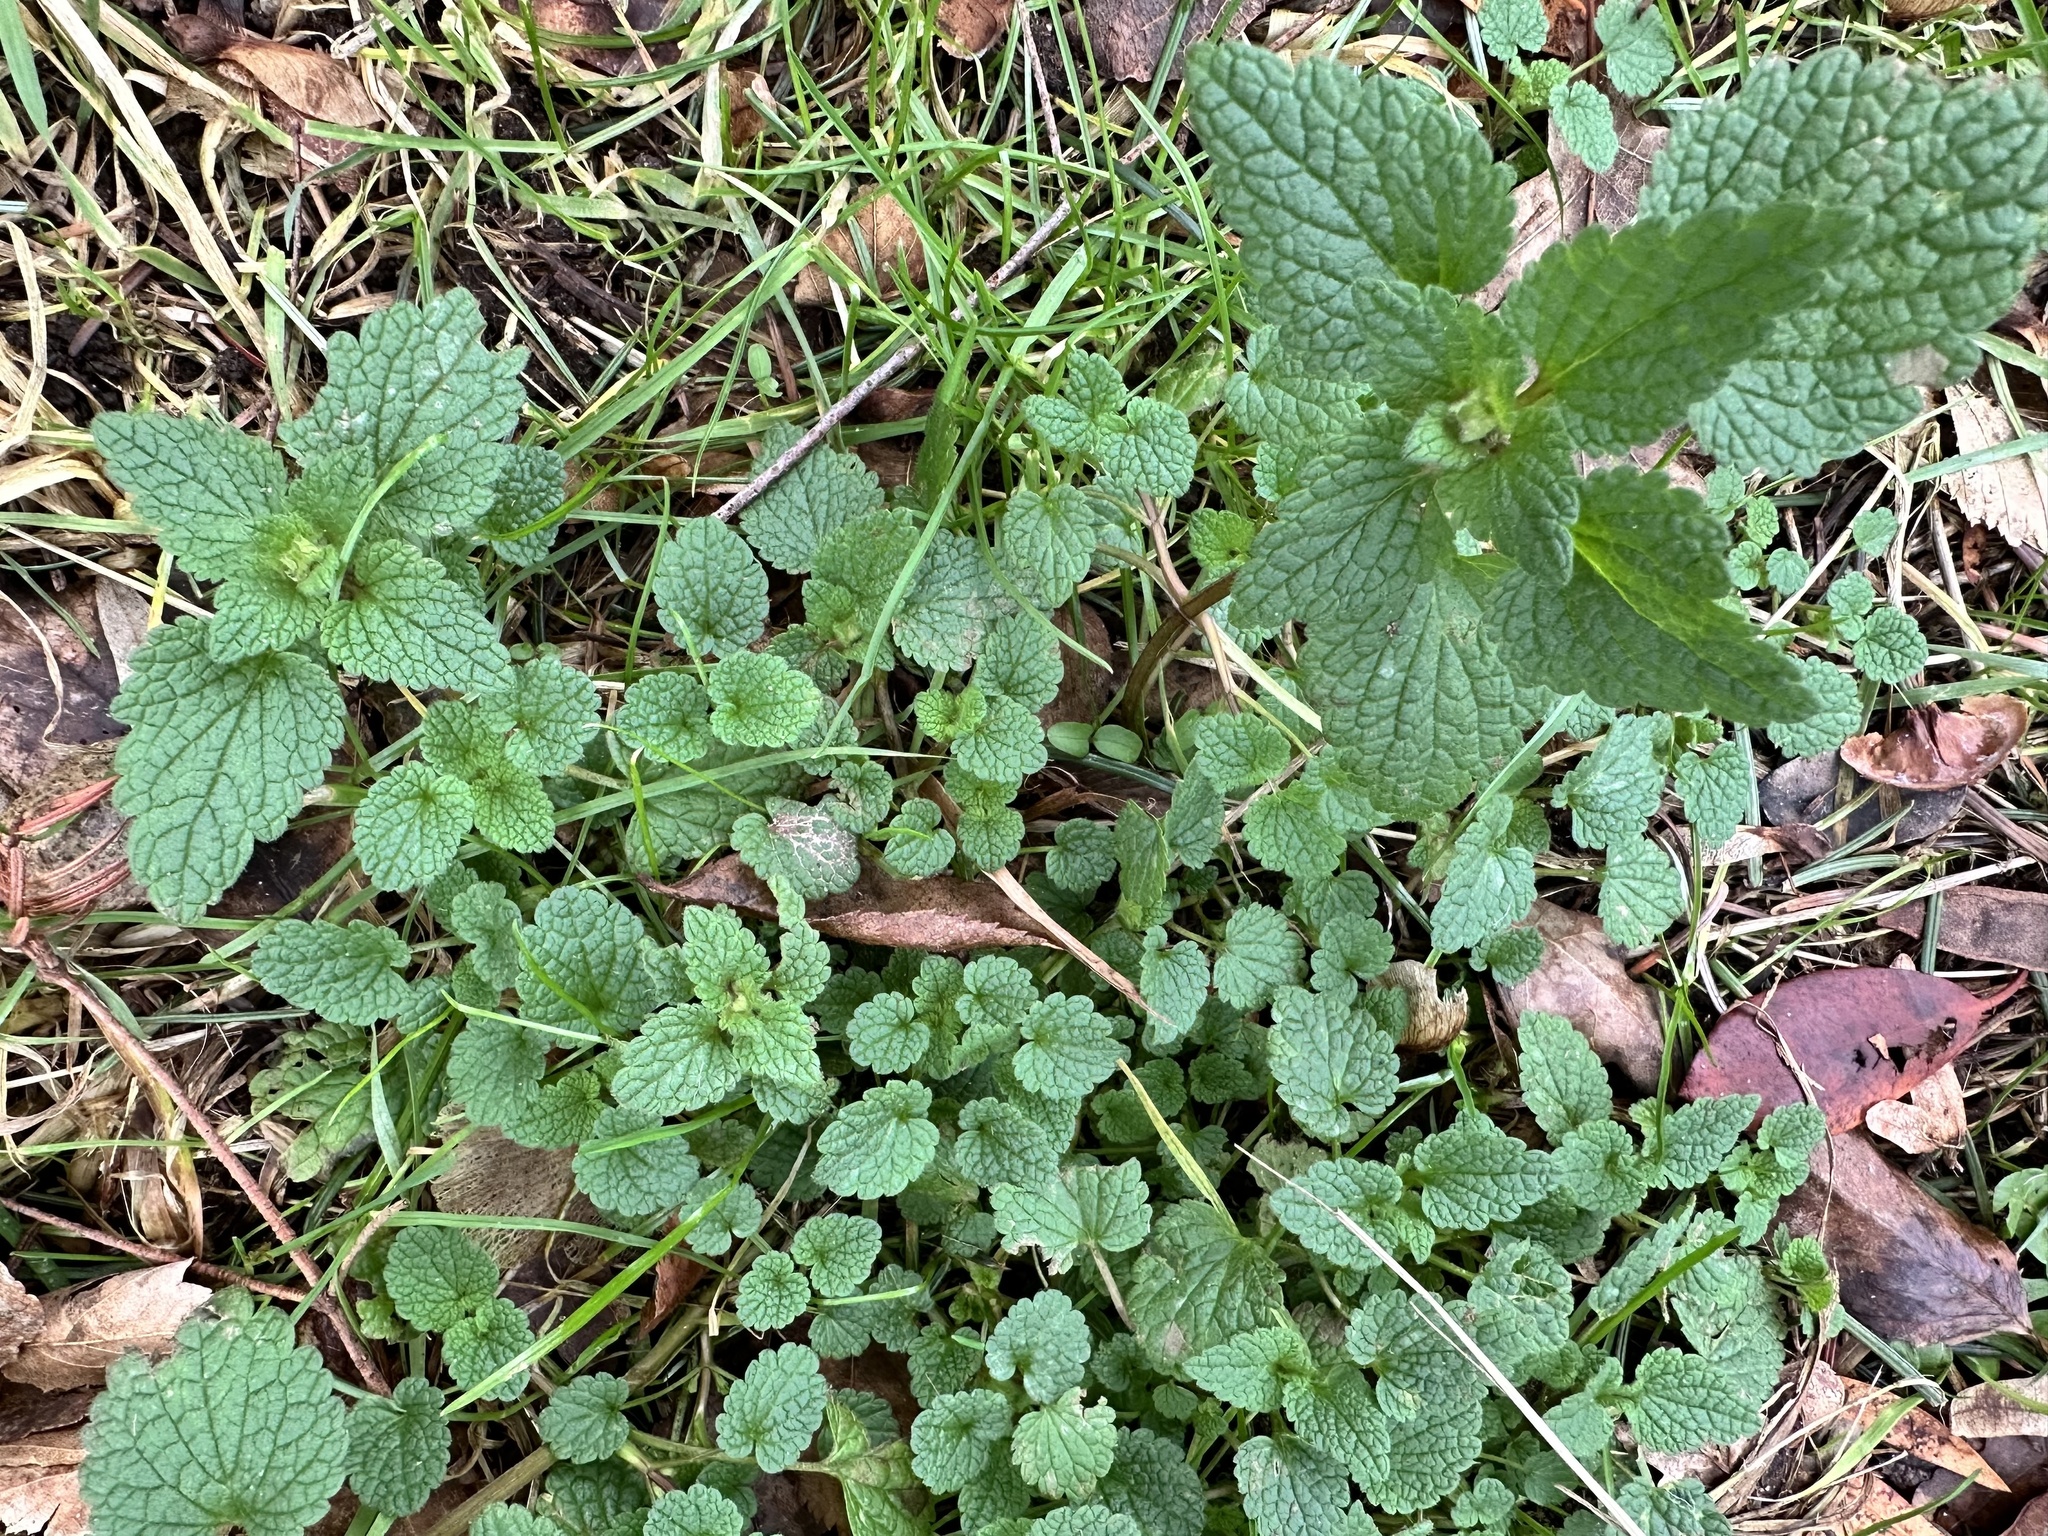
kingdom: Plantae
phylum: Tracheophyta
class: Magnoliopsida
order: Lamiales
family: Lamiaceae
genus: Lamium
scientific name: Lamium purpureum
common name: Red dead-nettle
